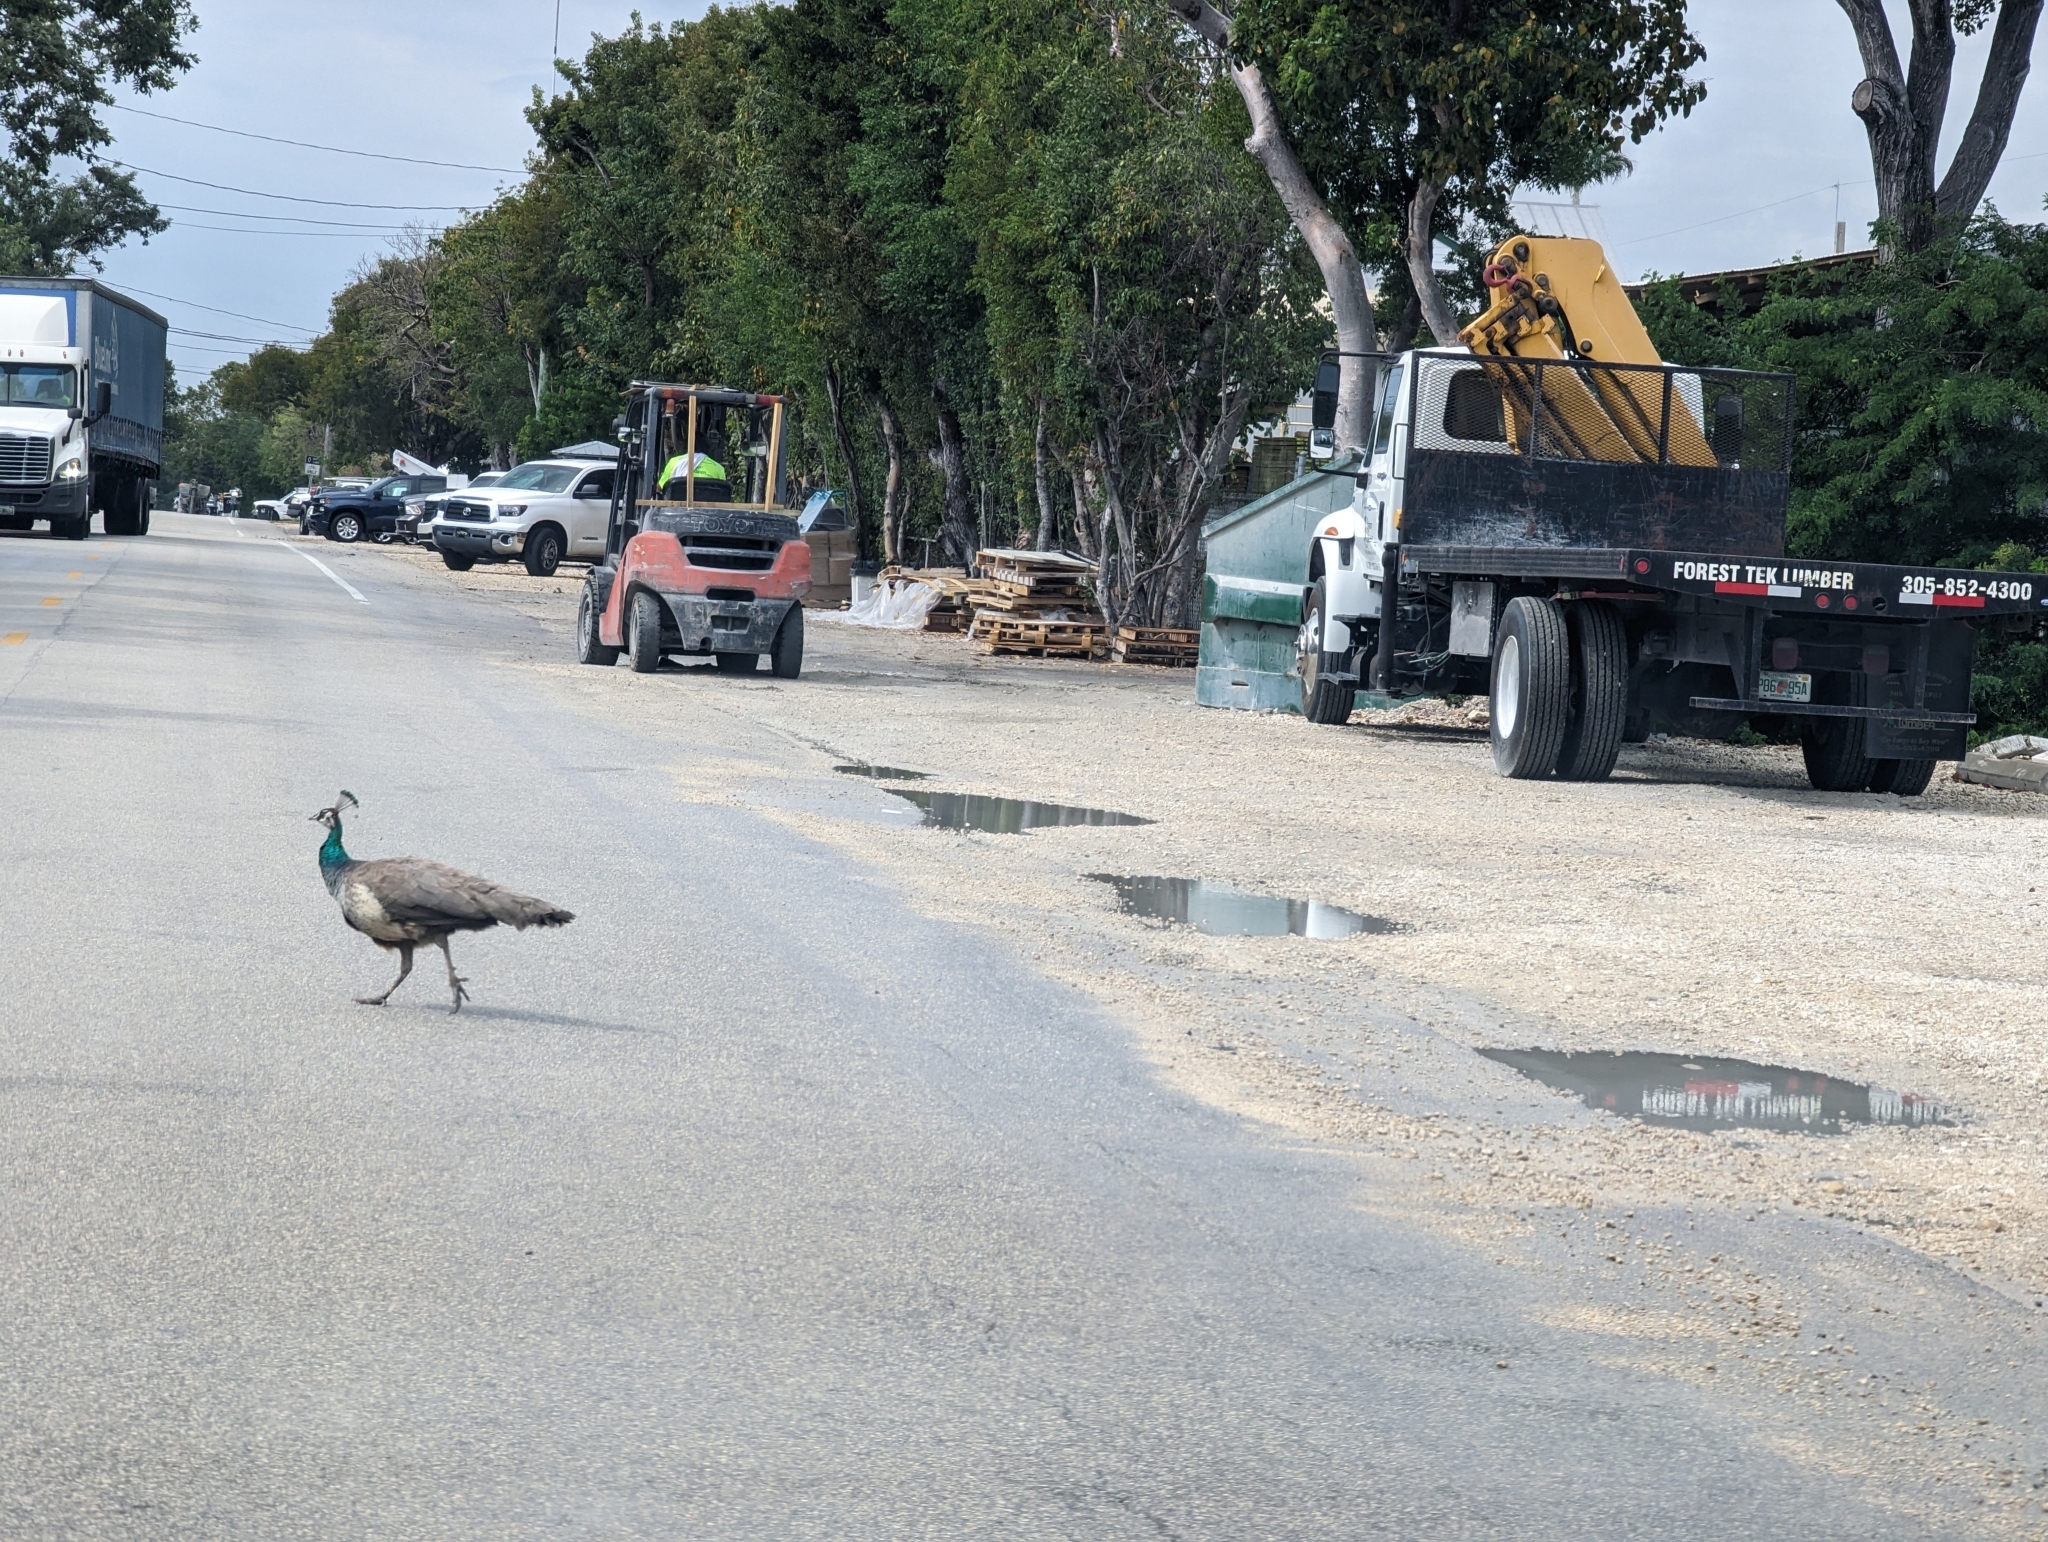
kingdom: Animalia
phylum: Chordata
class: Aves
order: Galliformes
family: Phasianidae
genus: Pavo
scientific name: Pavo cristatus
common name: Indian peafowl
